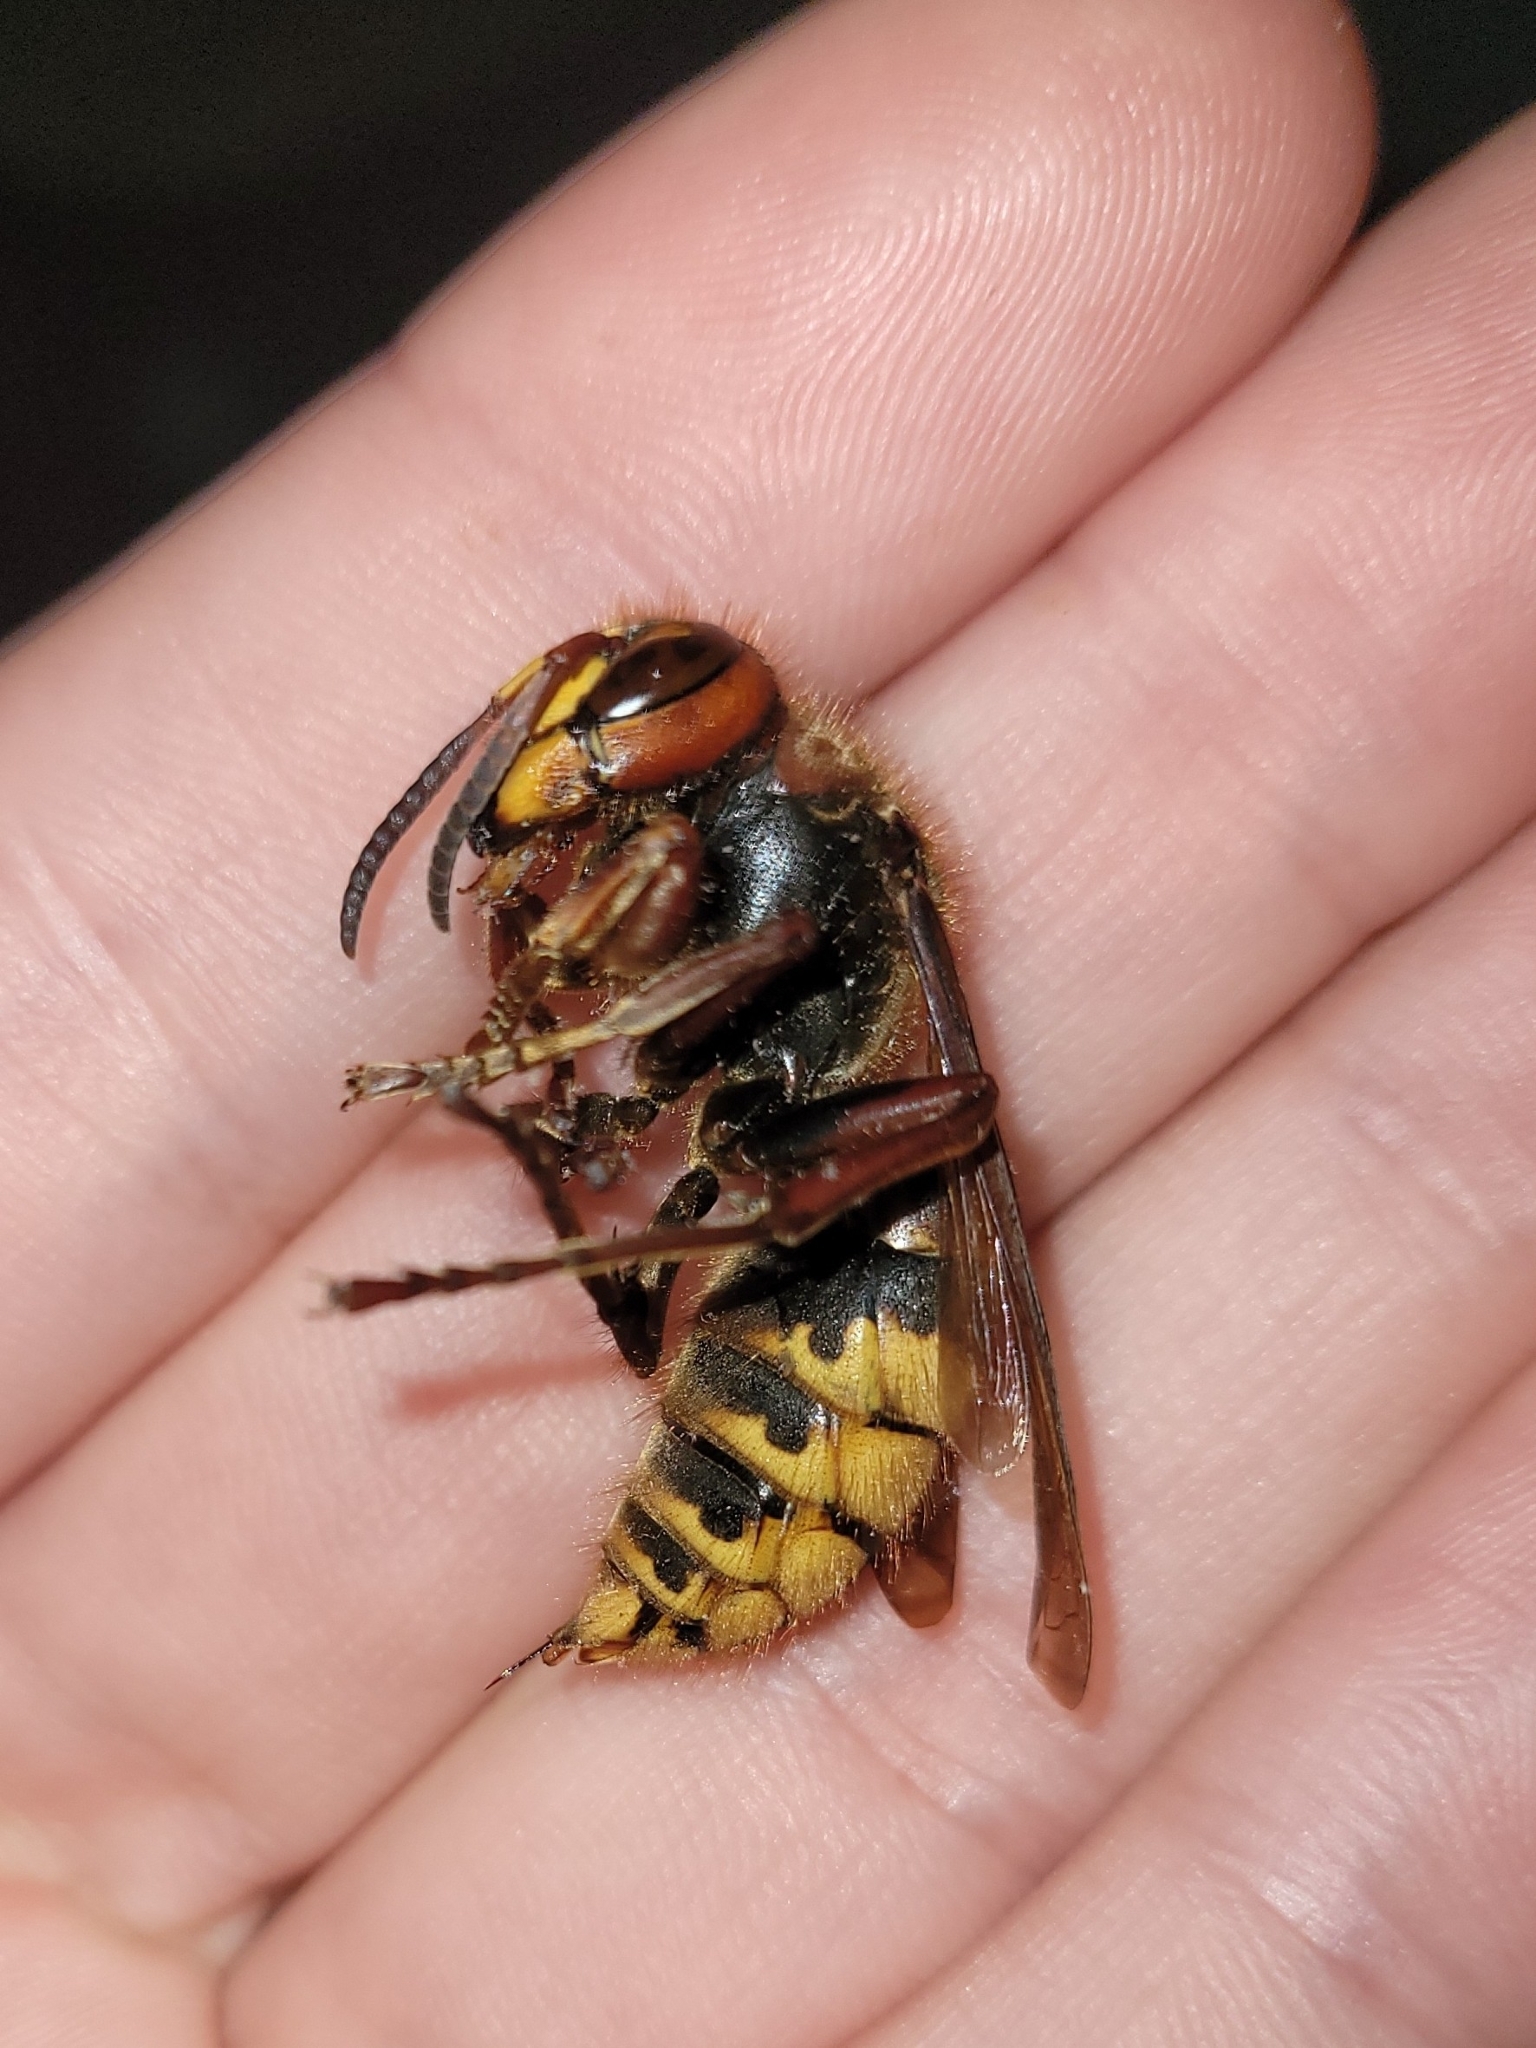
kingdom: Animalia
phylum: Arthropoda
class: Insecta
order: Hymenoptera
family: Vespidae
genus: Vespa
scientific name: Vespa crabro
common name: Hornet
